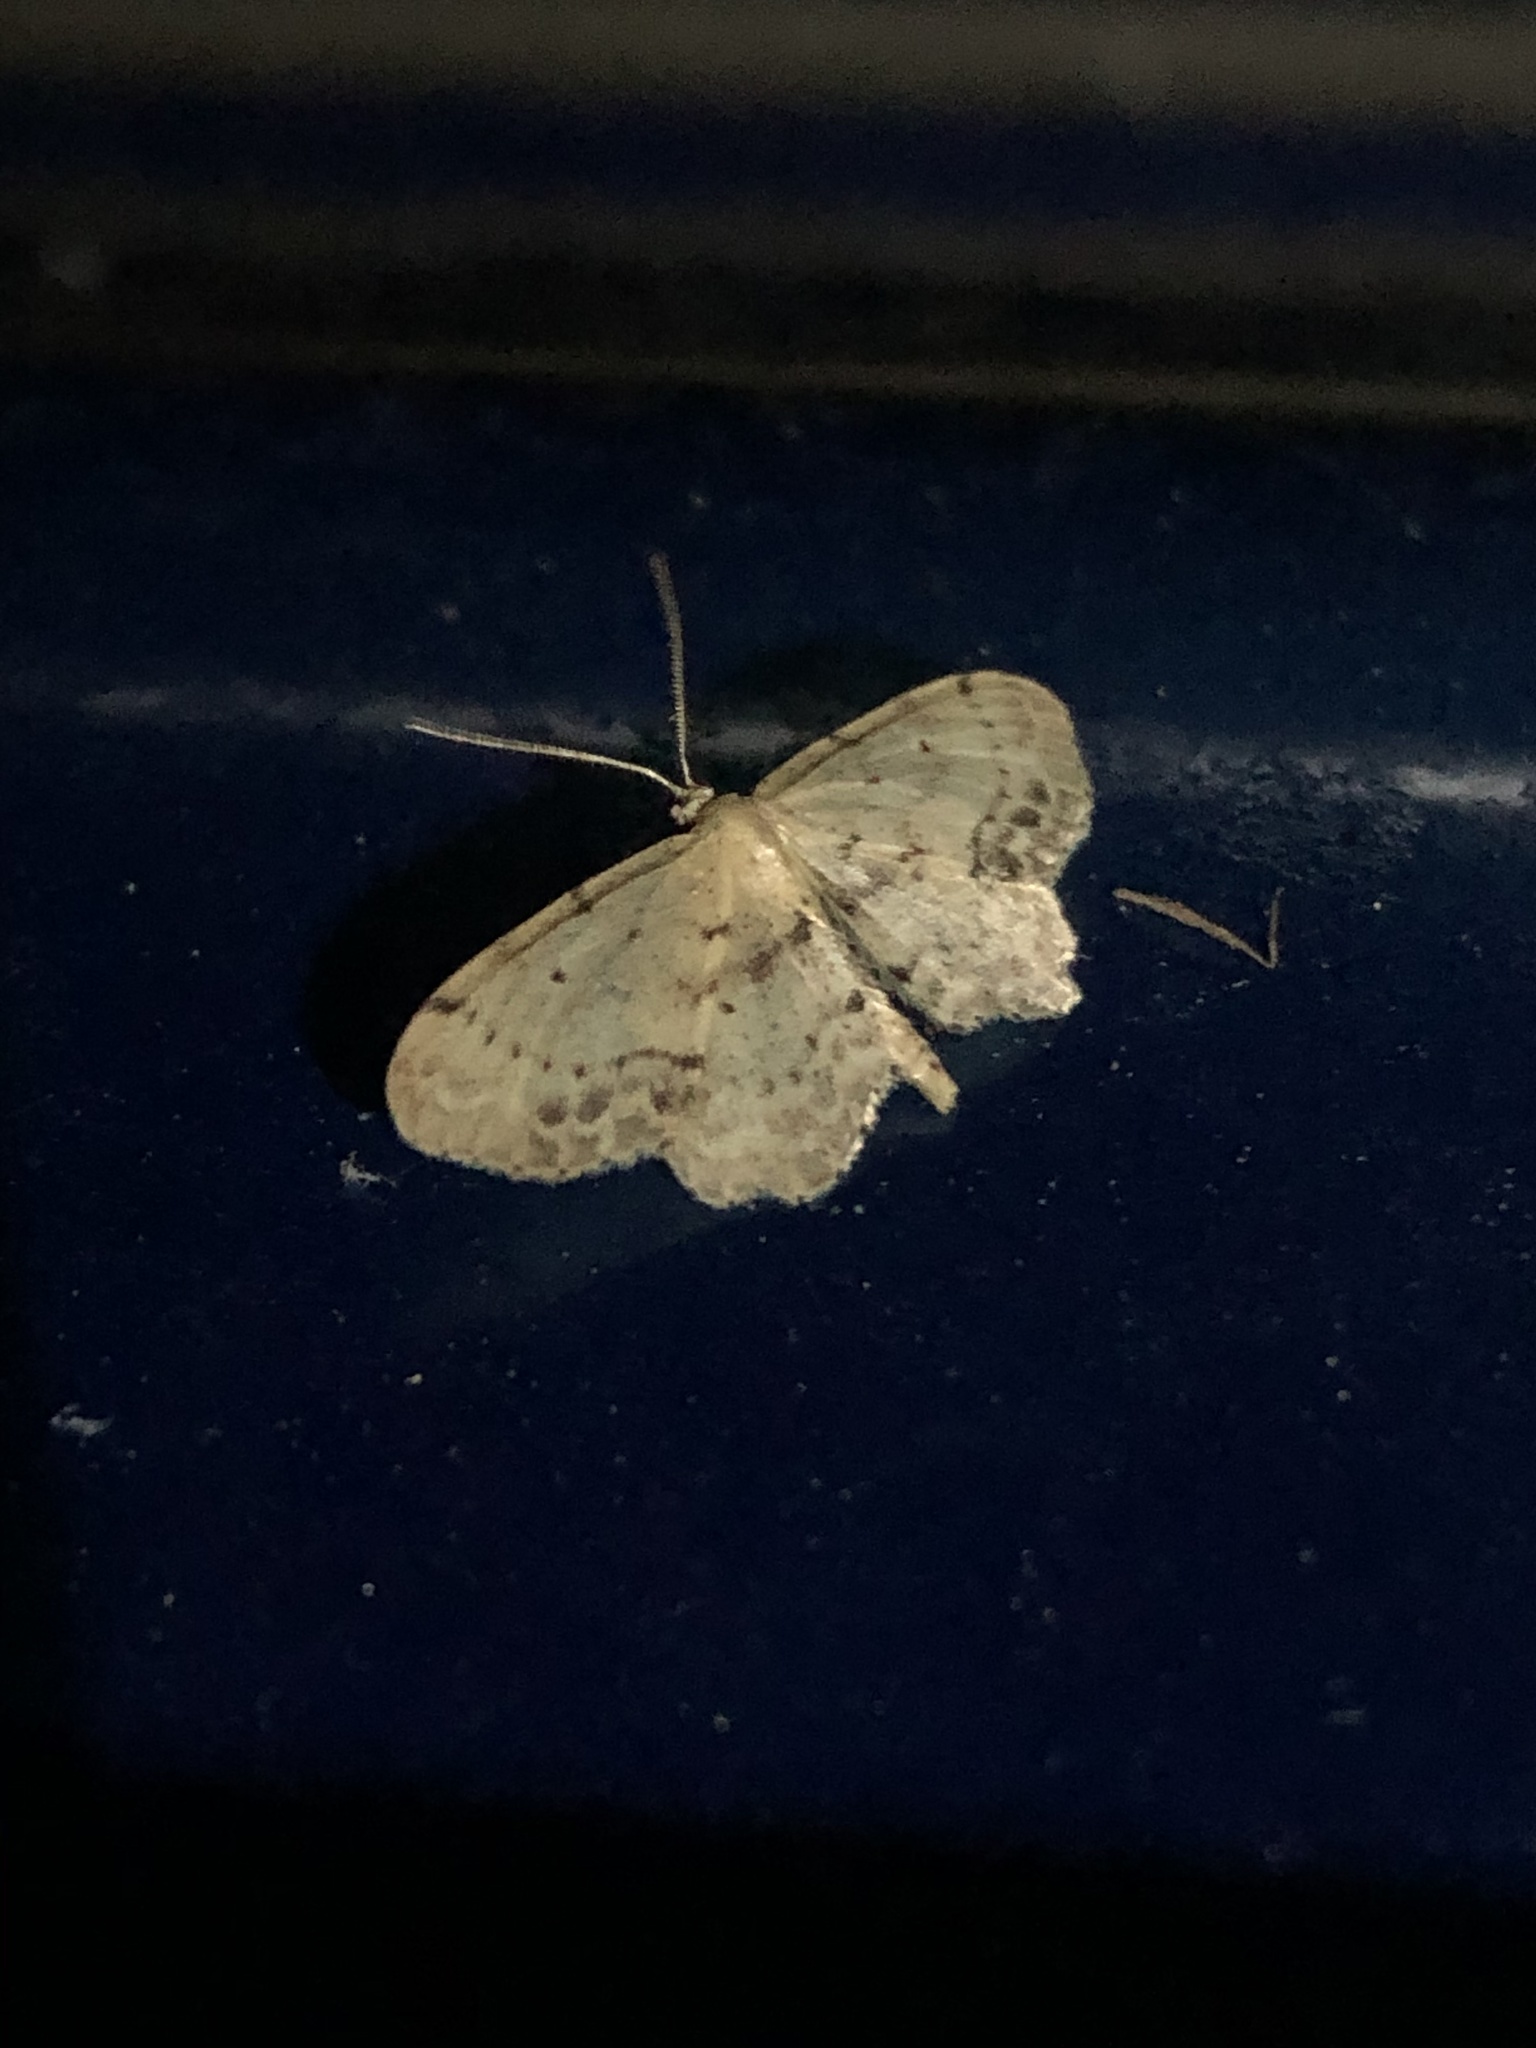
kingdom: Animalia
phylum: Arthropoda
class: Insecta
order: Lepidoptera
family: Geometridae
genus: Idaea
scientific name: Idaea dimidiata
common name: Single-dotted wave
